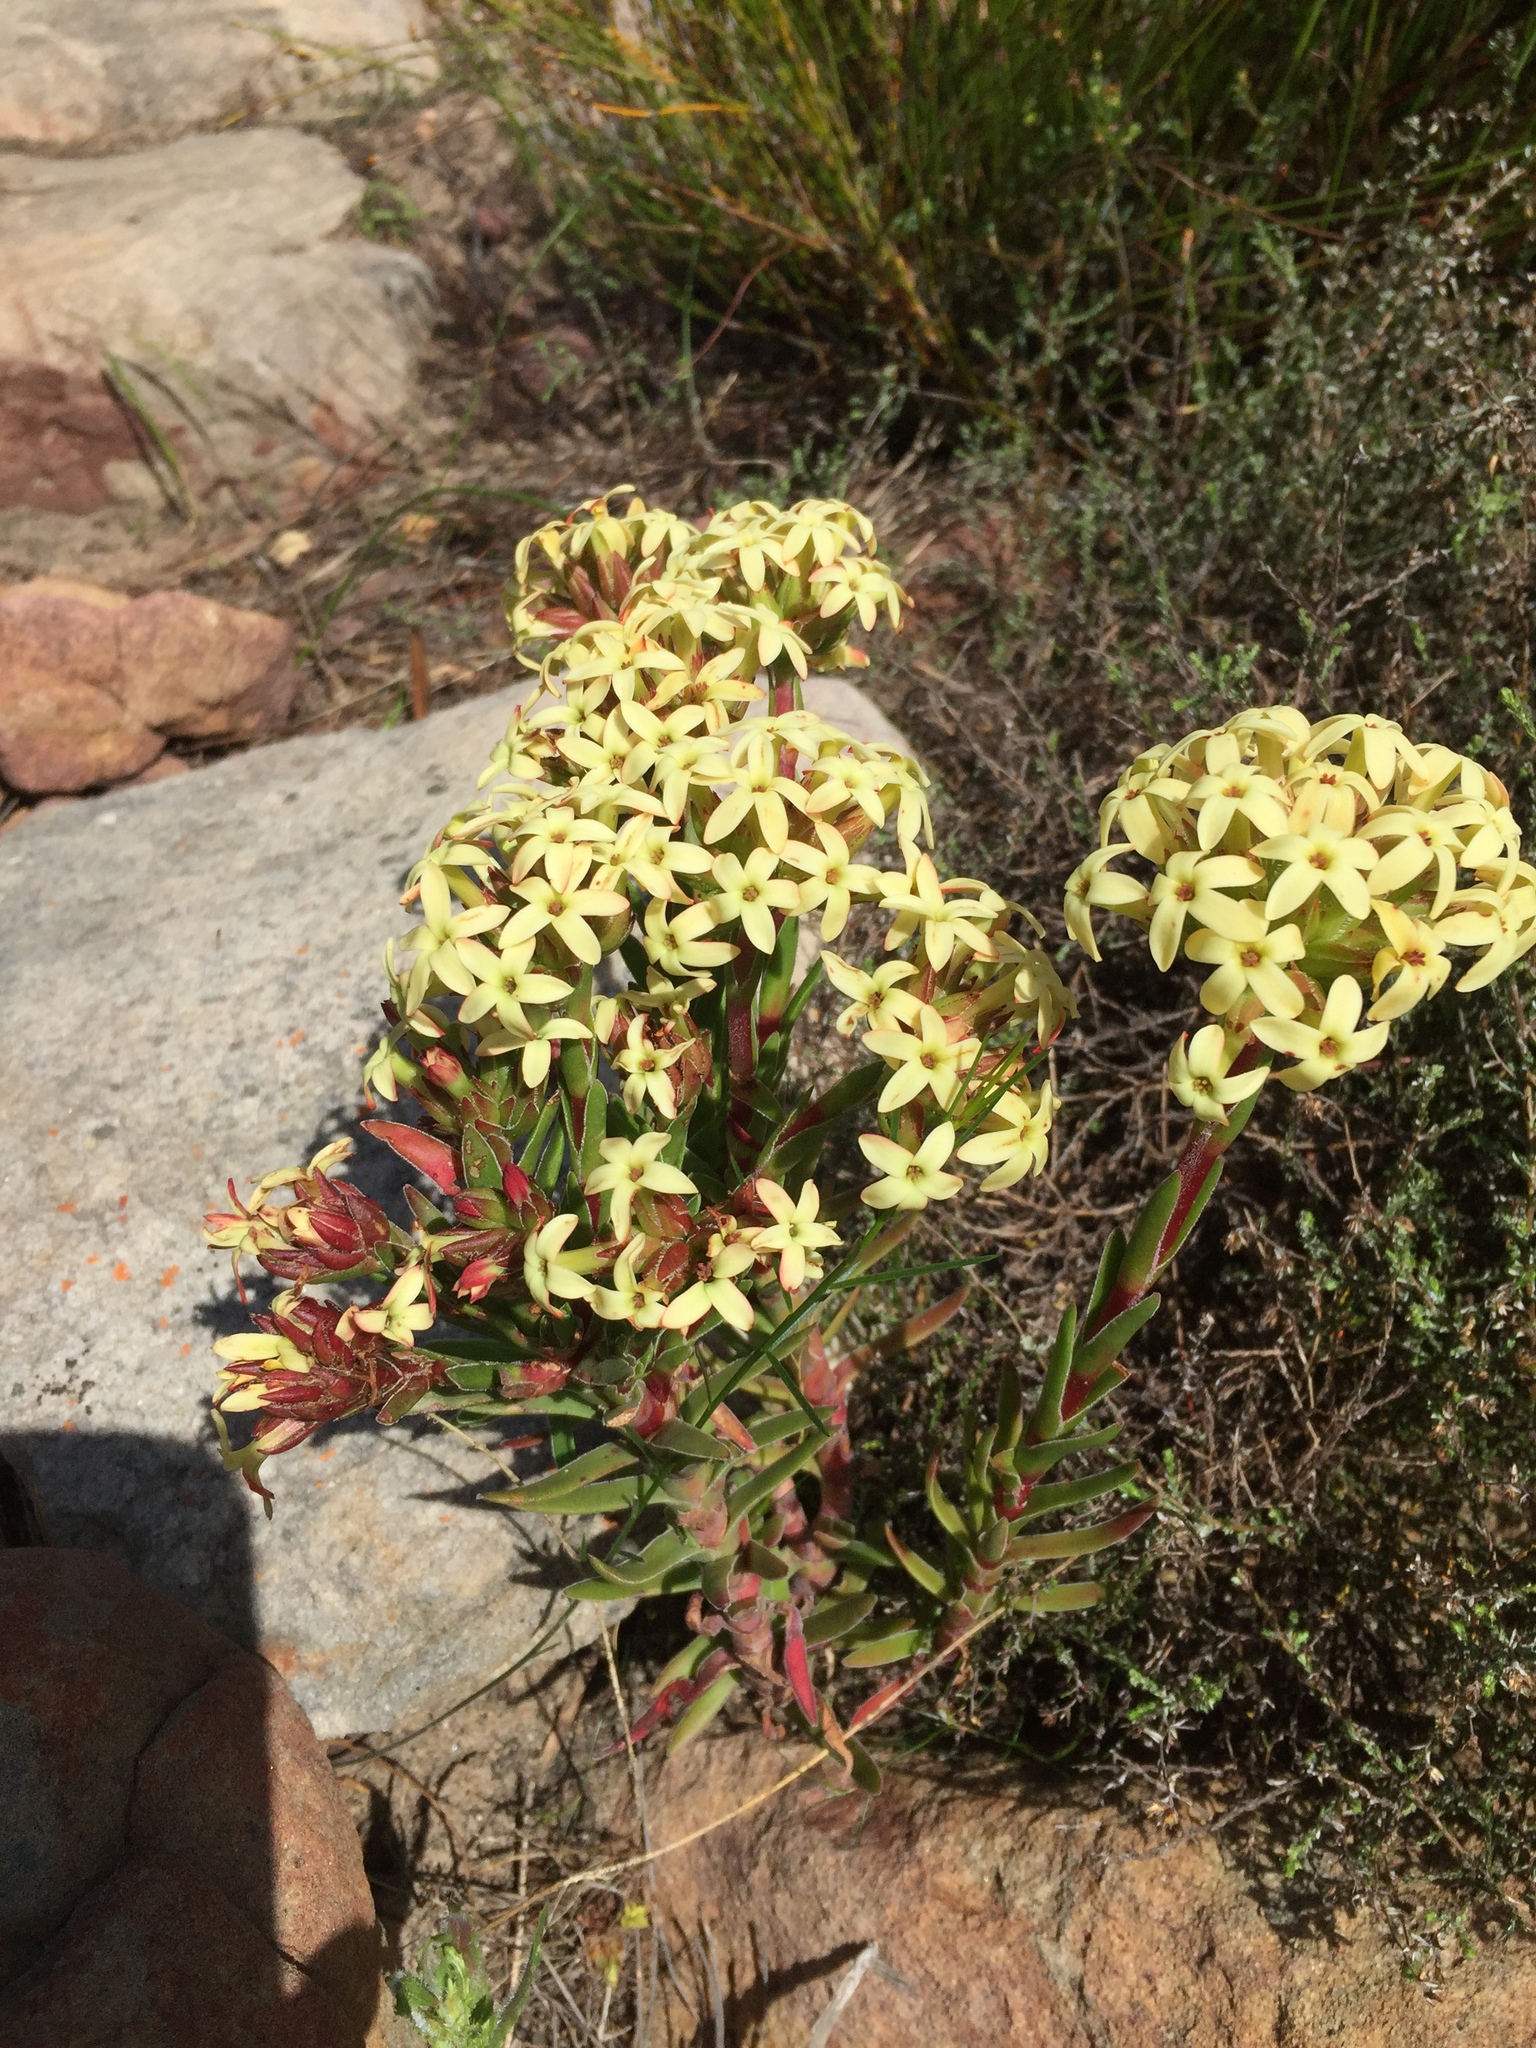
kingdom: Plantae
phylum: Tracheophyta
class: Magnoliopsida
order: Saxifragales
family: Crassulaceae
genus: Crassula
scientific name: Crassula fascicularis
